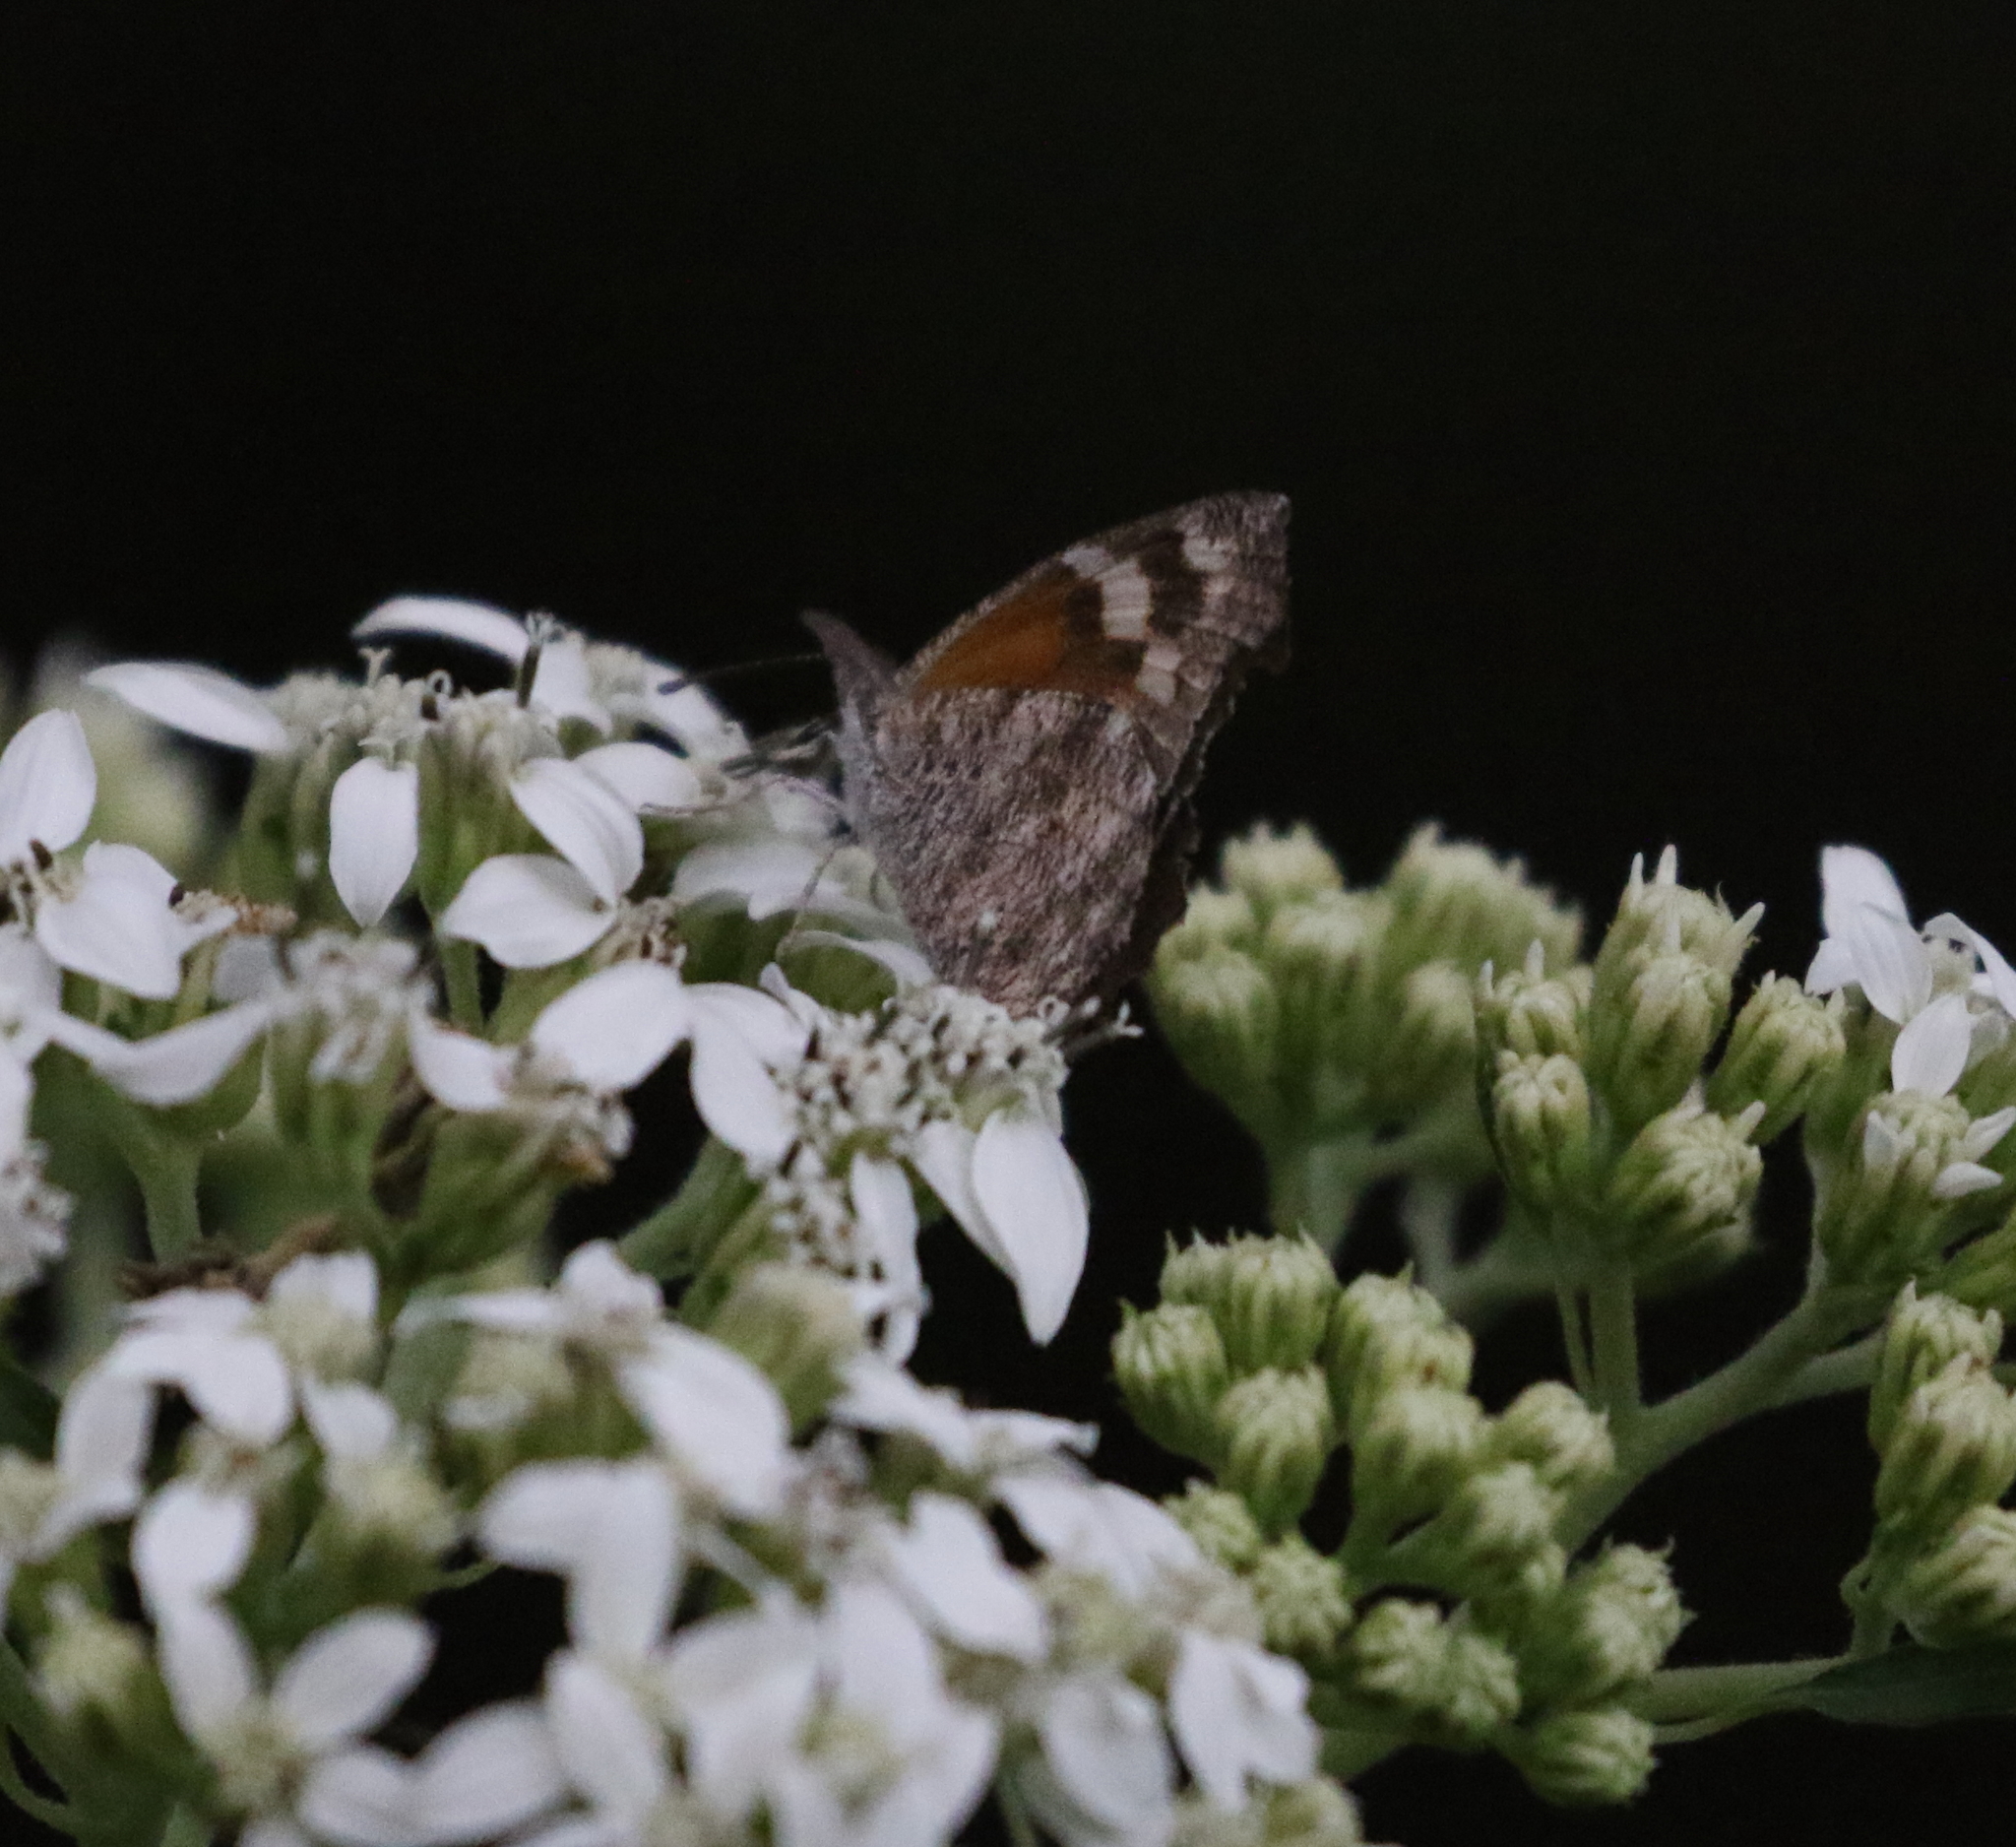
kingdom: Animalia
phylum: Arthropoda
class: Insecta
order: Lepidoptera
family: Nymphalidae
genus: Libytheana
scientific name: Libytheana carinenta
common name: American snout
